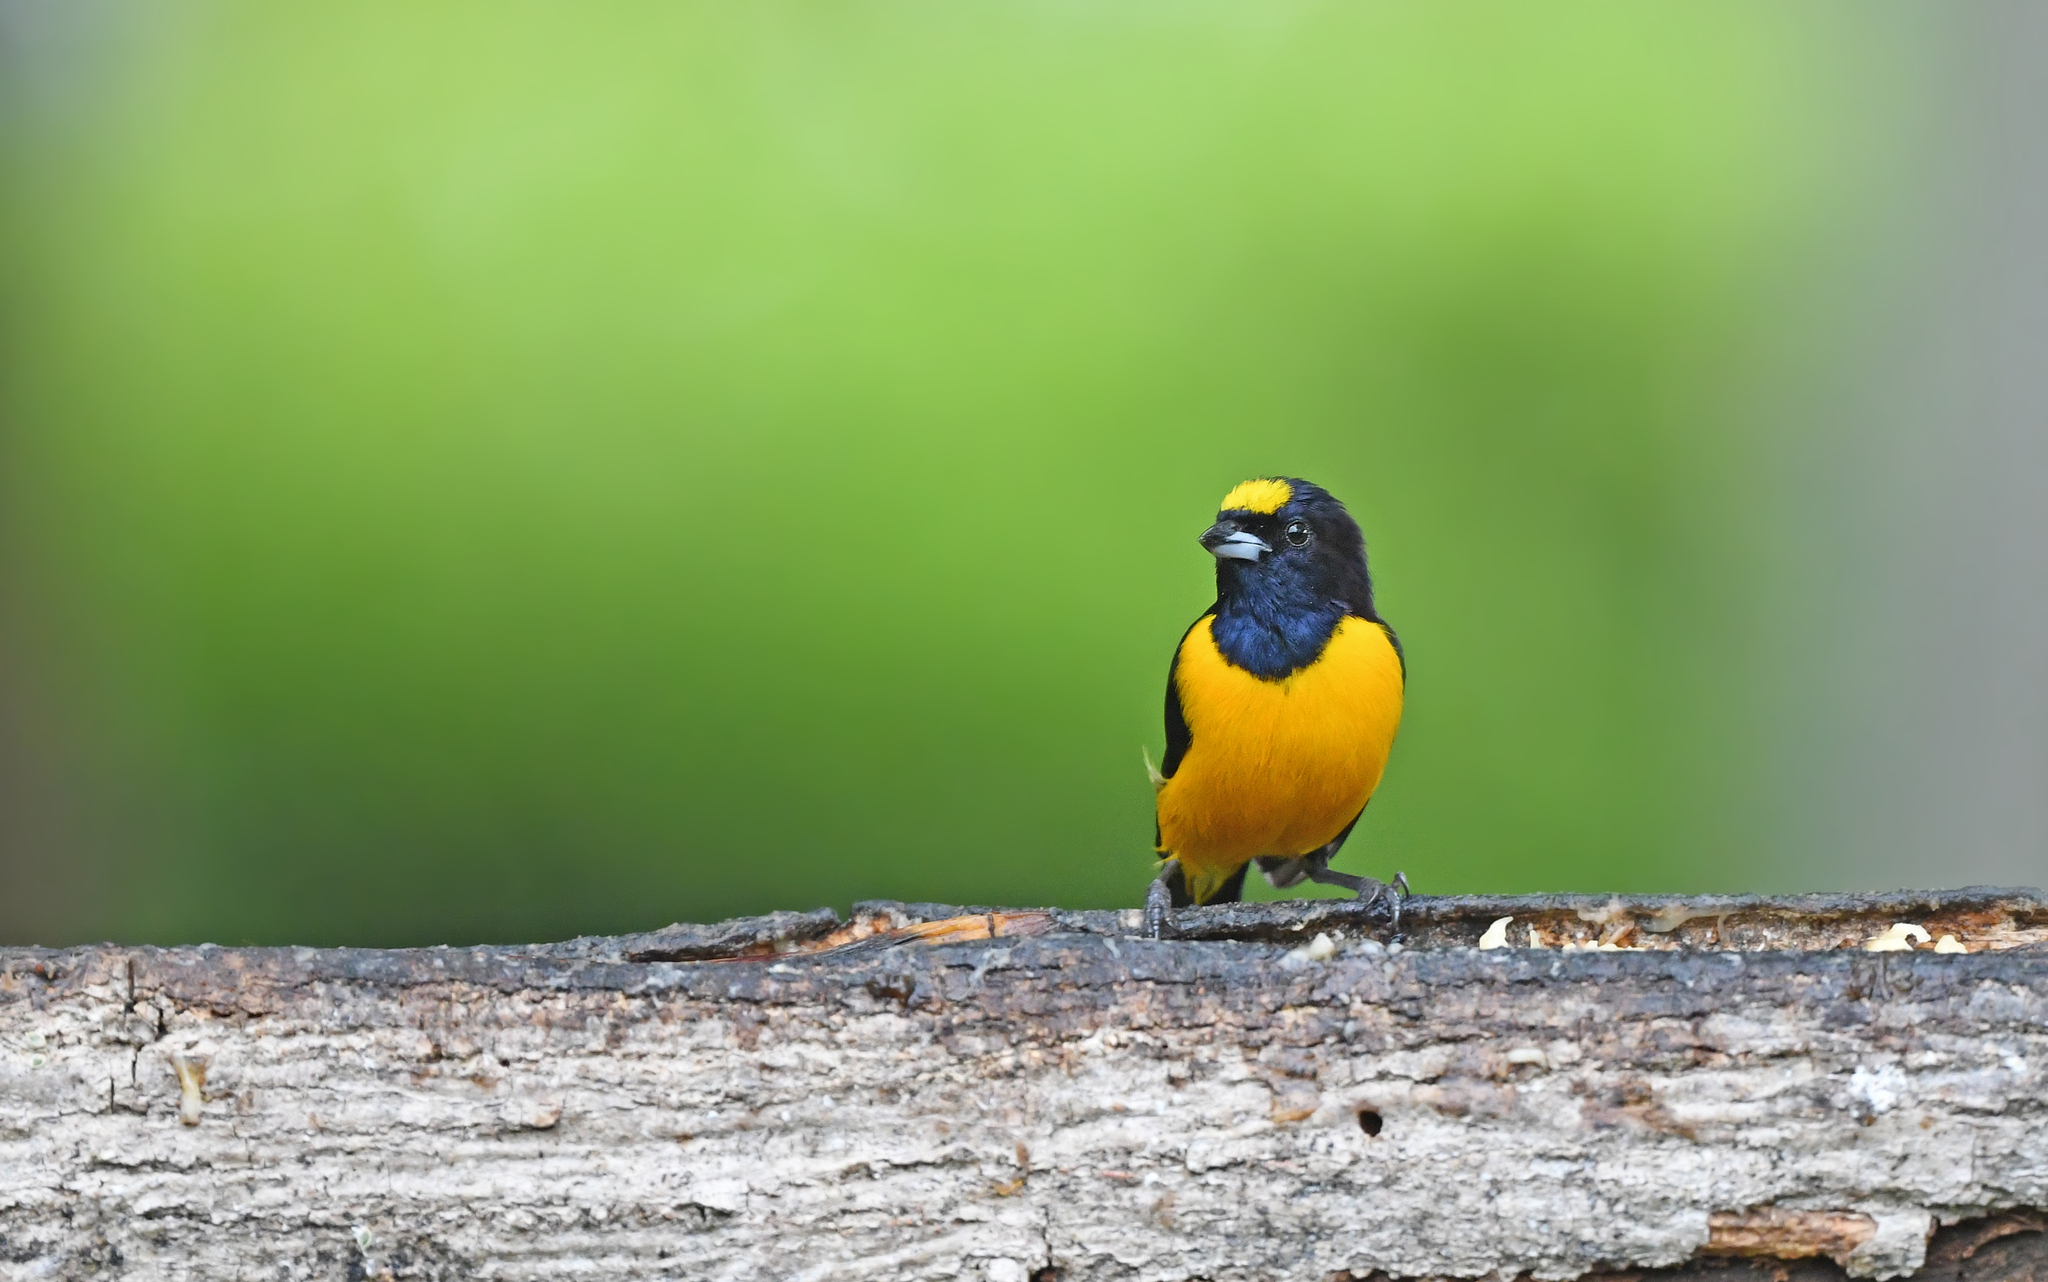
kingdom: Animalia
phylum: Chordata
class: Aves
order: Passeriformes
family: Fringillidae
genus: Euphonia
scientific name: Euphonia concinna
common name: Velvet-fronted euphonia
